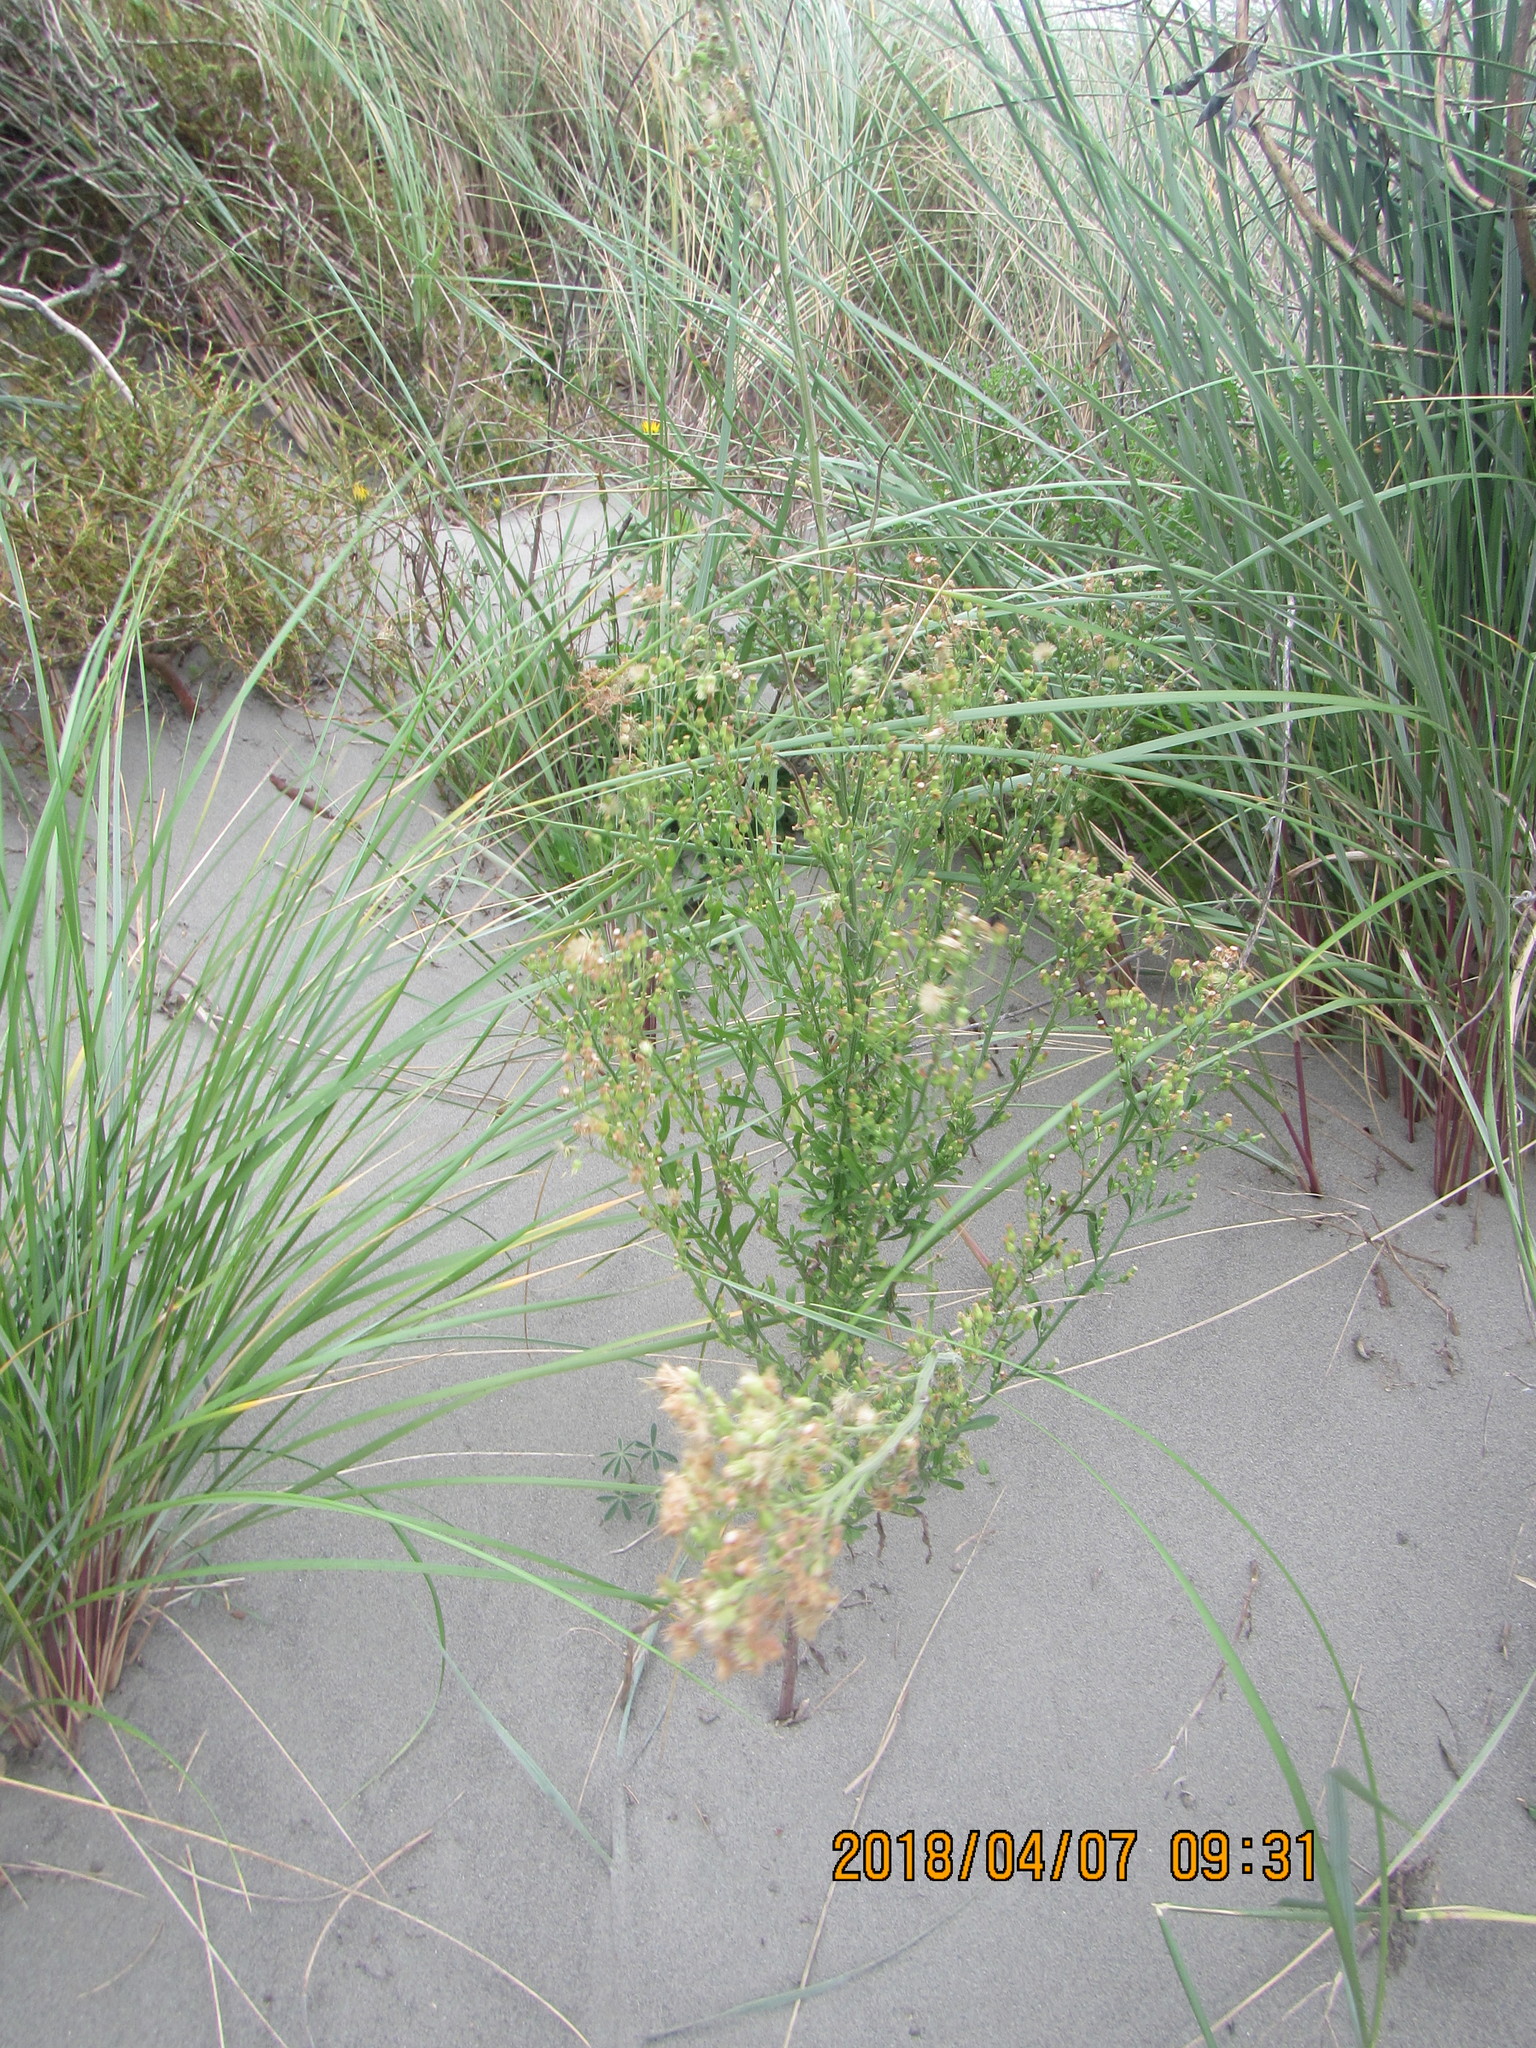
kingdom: Plantae
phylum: Tracheophyta
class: Magnoliopsida
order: Asterales
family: Asteraceae
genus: Erigeron
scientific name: Erigeron sumatrensis
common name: Daisy
